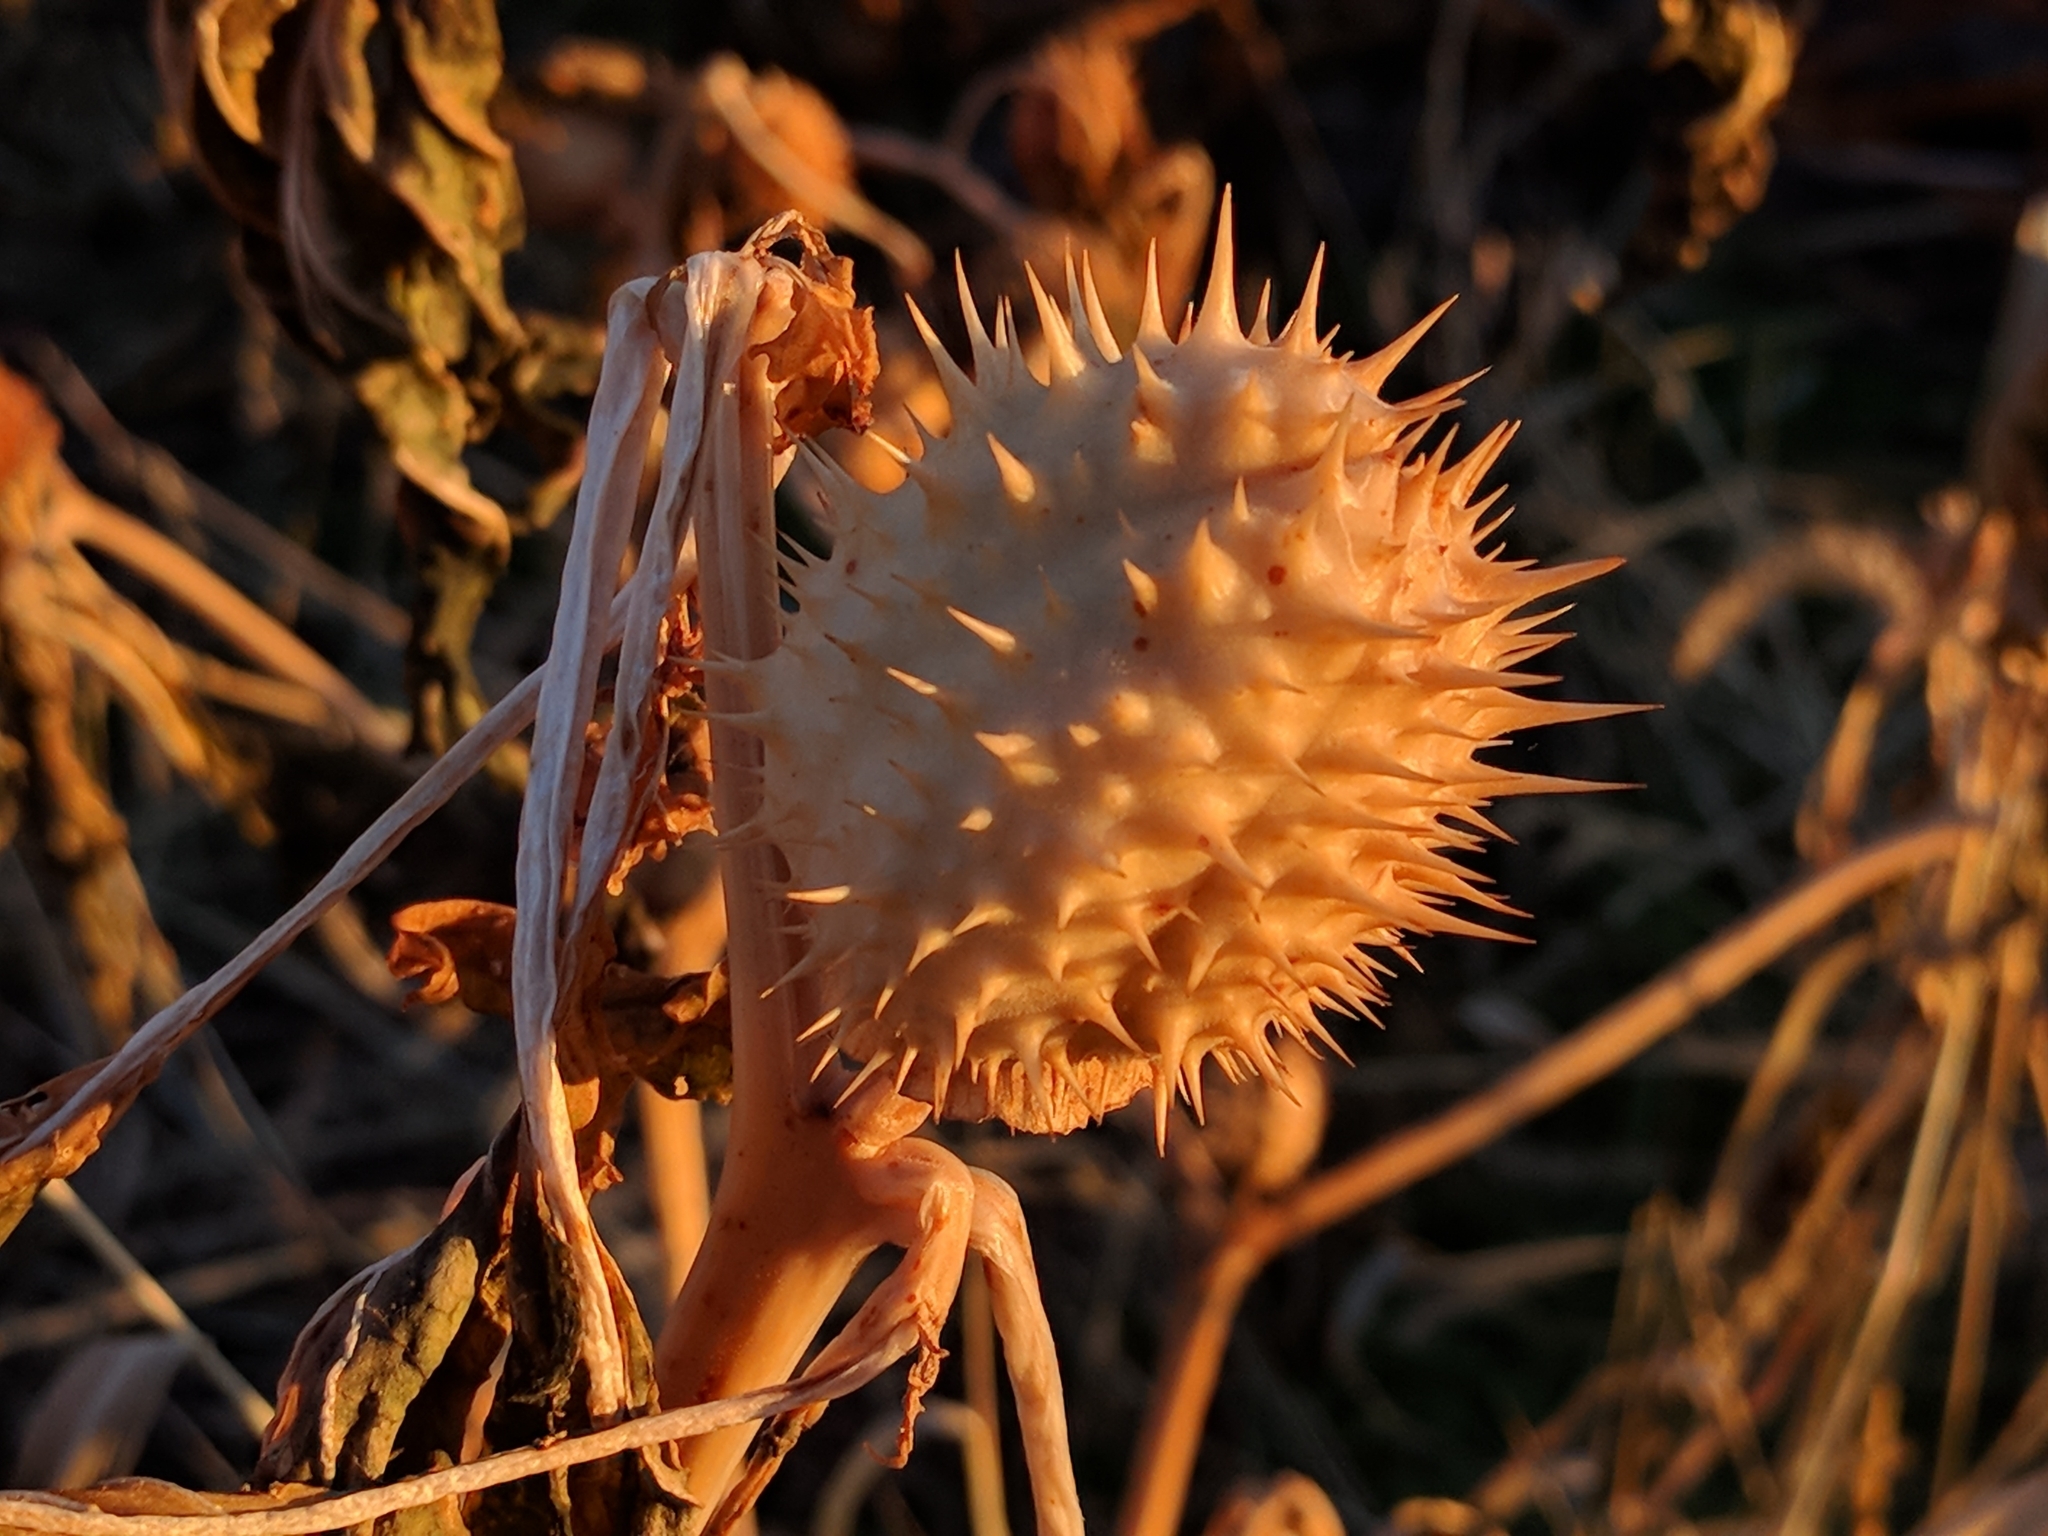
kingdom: Plantae
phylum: Tracheophyta
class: Magnoliopsida
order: Solanales
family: Solanaceae
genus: Datura
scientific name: Datura stramonium
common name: Thorn-apple
